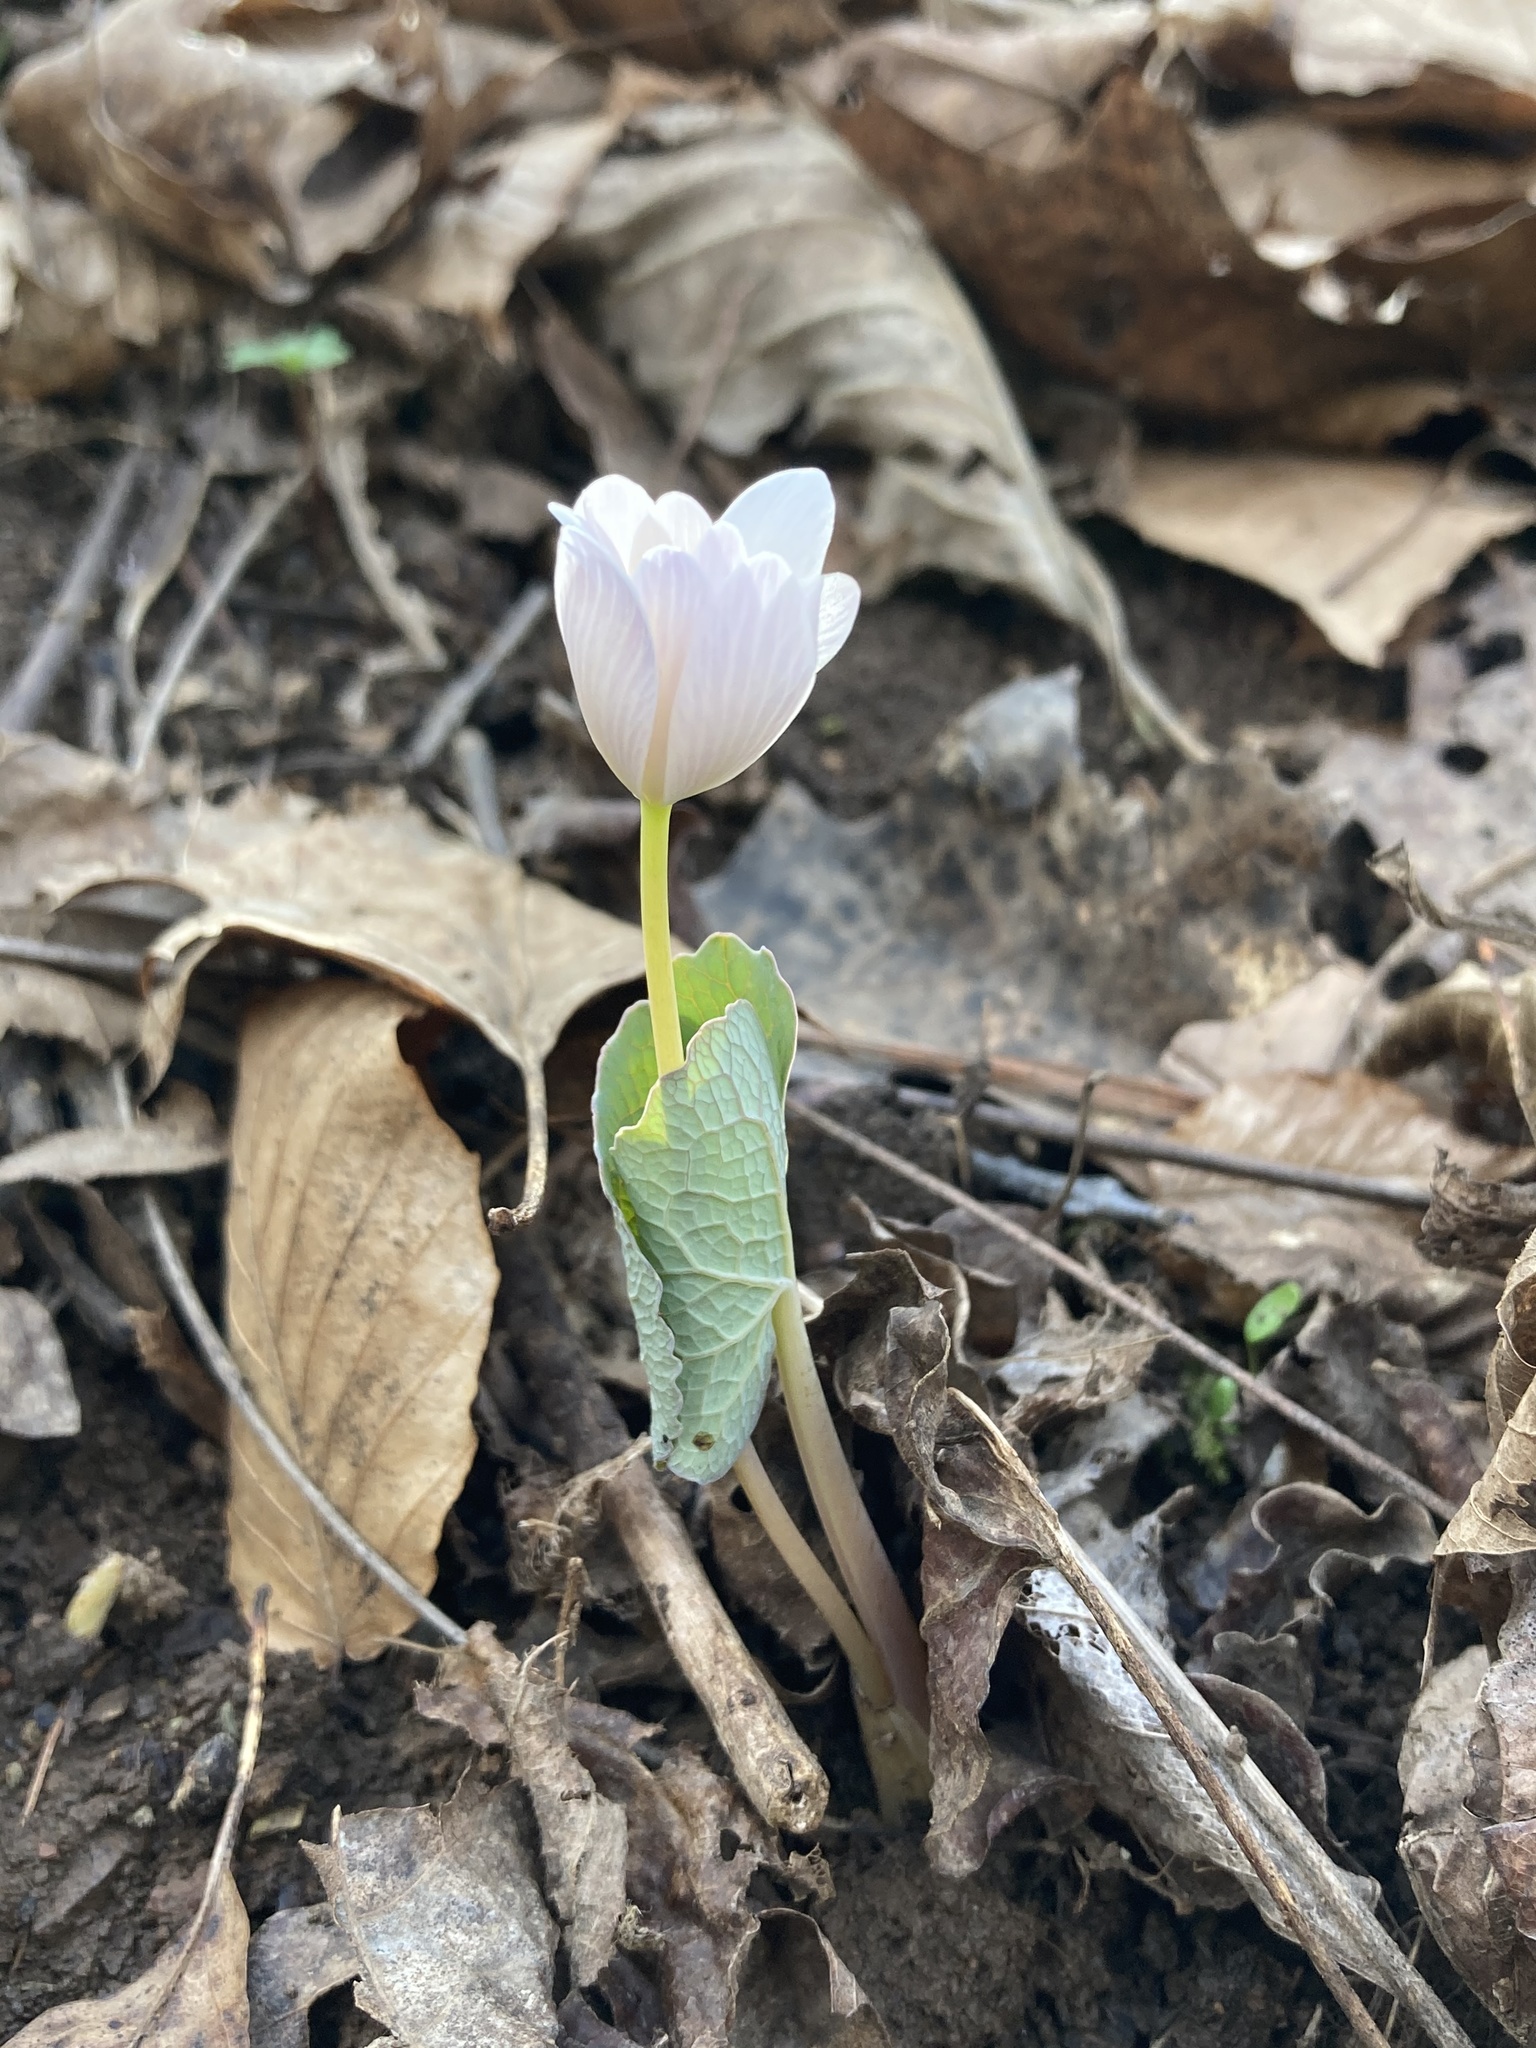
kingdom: Plantae
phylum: Tracheophyta
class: Magnoliopsida
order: Ranunculales
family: Papaveraceae
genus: Sanguinaria
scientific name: Sanguinaria canadensis
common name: Bloodroot
